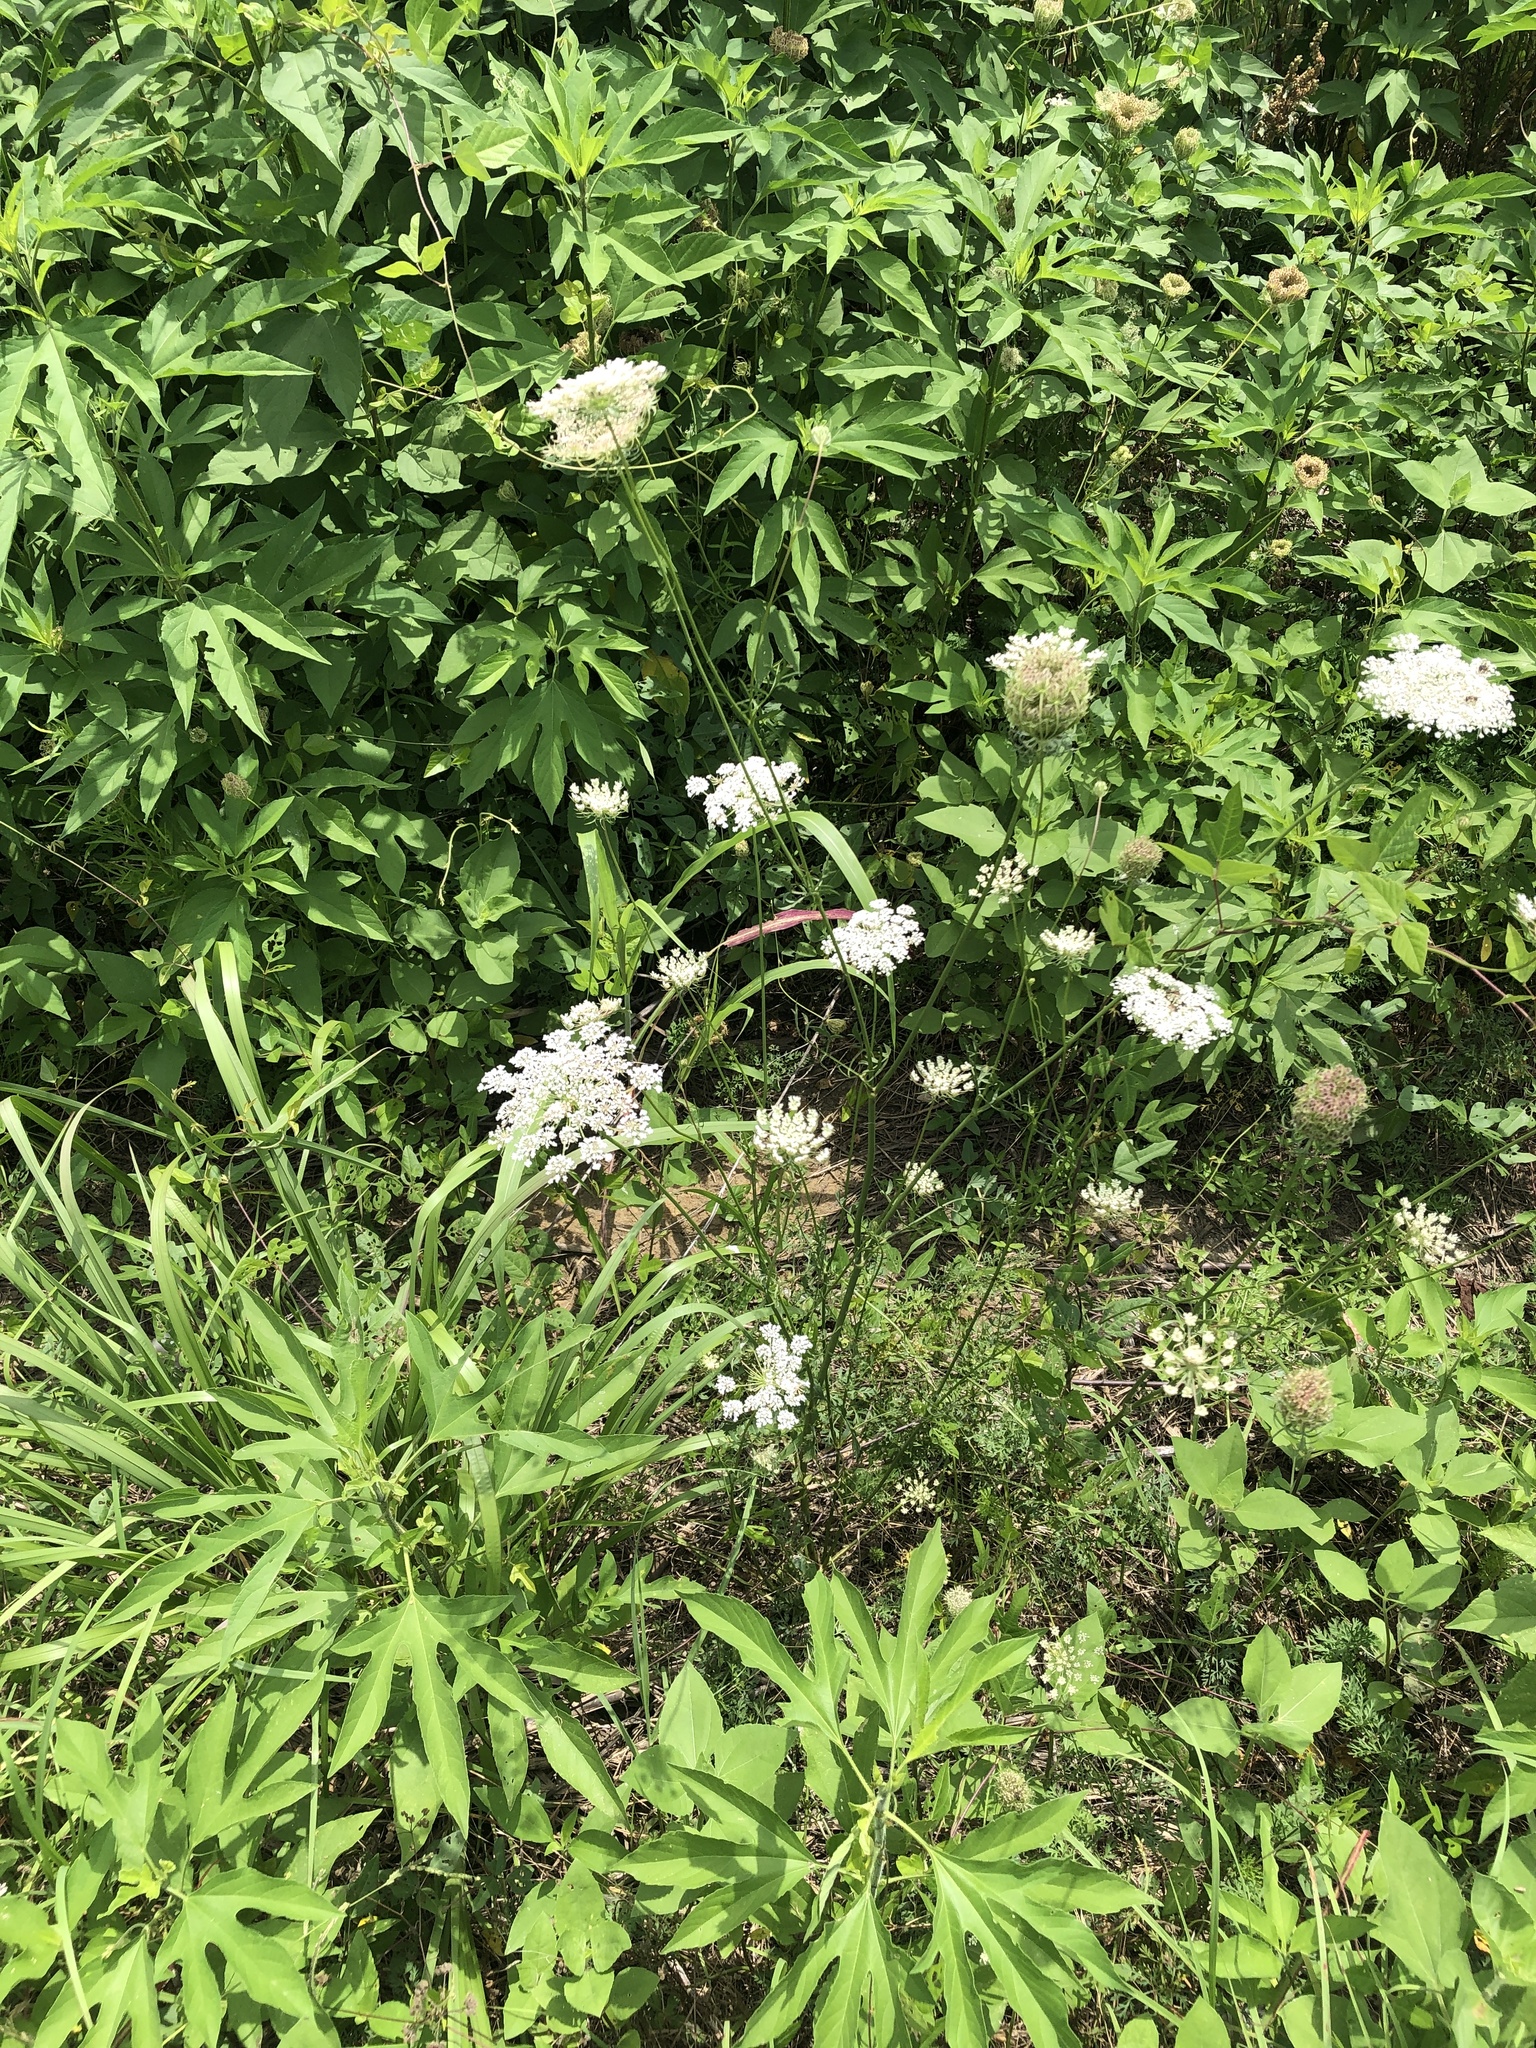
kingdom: Plantae
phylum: Tracheophyta
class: Magnoliopsida
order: Apiales
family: Apiaceae
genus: Daucus
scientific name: Daucus carota
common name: Wild carrot
